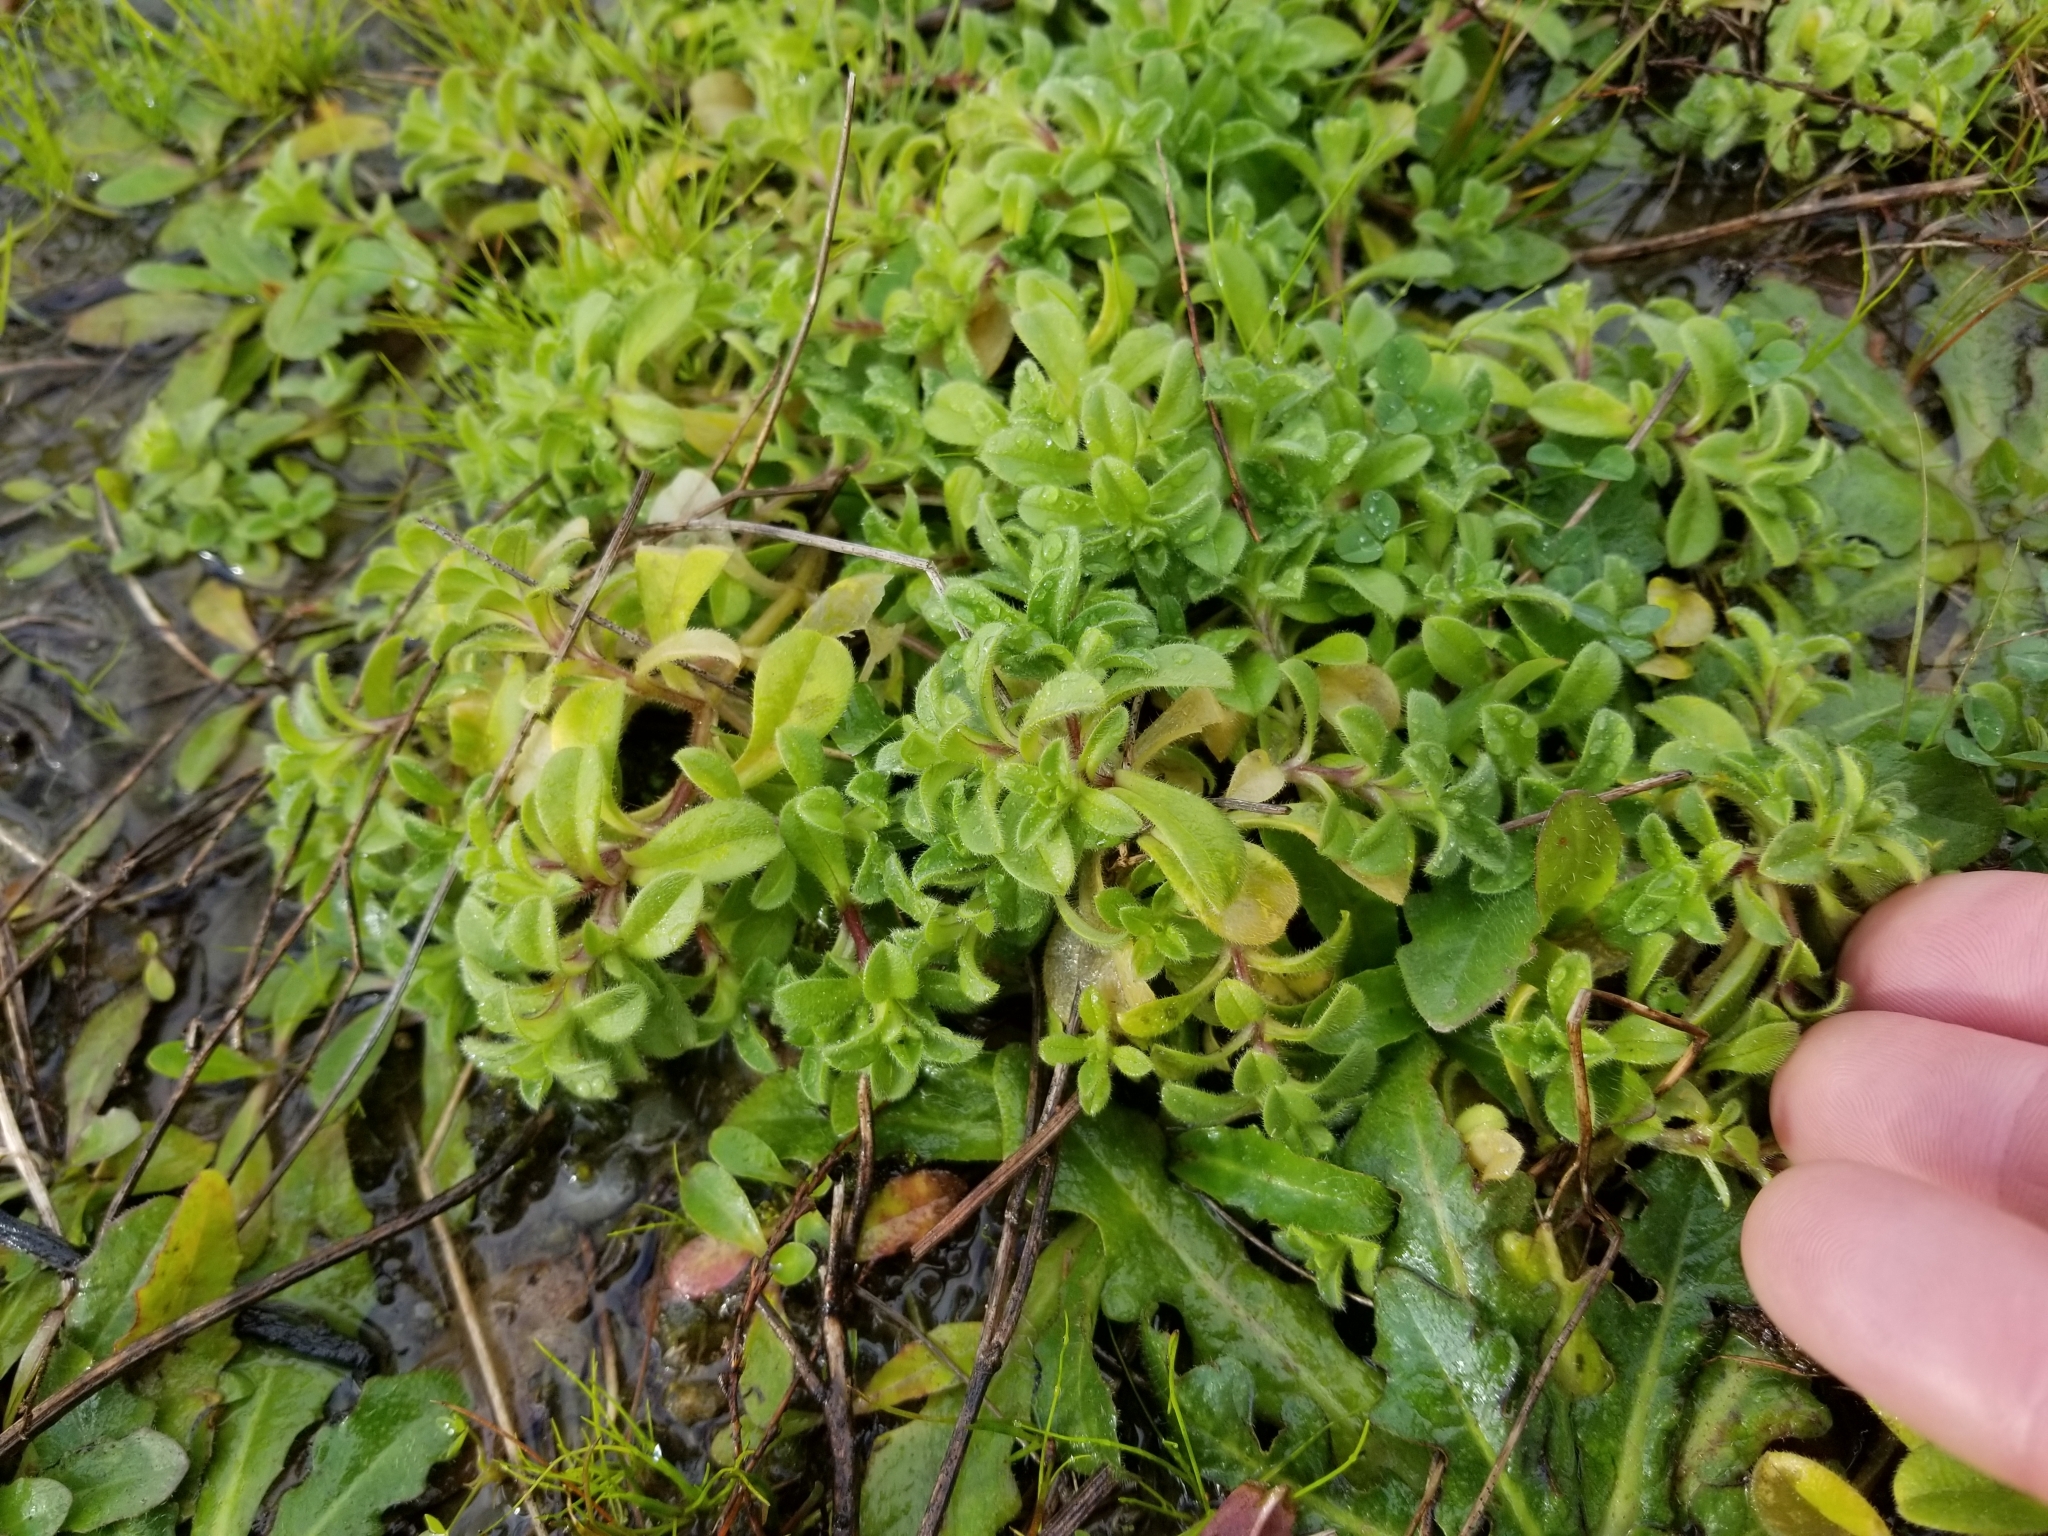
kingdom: Plantae
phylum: Tracheophyta
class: Magnoliopsida
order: Caryophyllales
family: Caryophyllaceae
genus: Cerastium
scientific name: Cerastium fontanum
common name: Common mouse-ear
